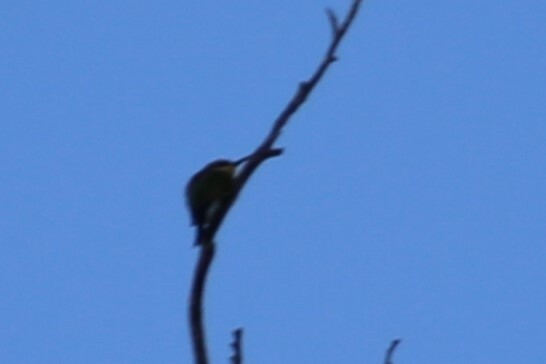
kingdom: Animalia
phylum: Chordata
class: Aves
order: Coraciiformes
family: Meropidae
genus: Merops
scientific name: Merops ornatus
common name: Rainbow bee-eater
